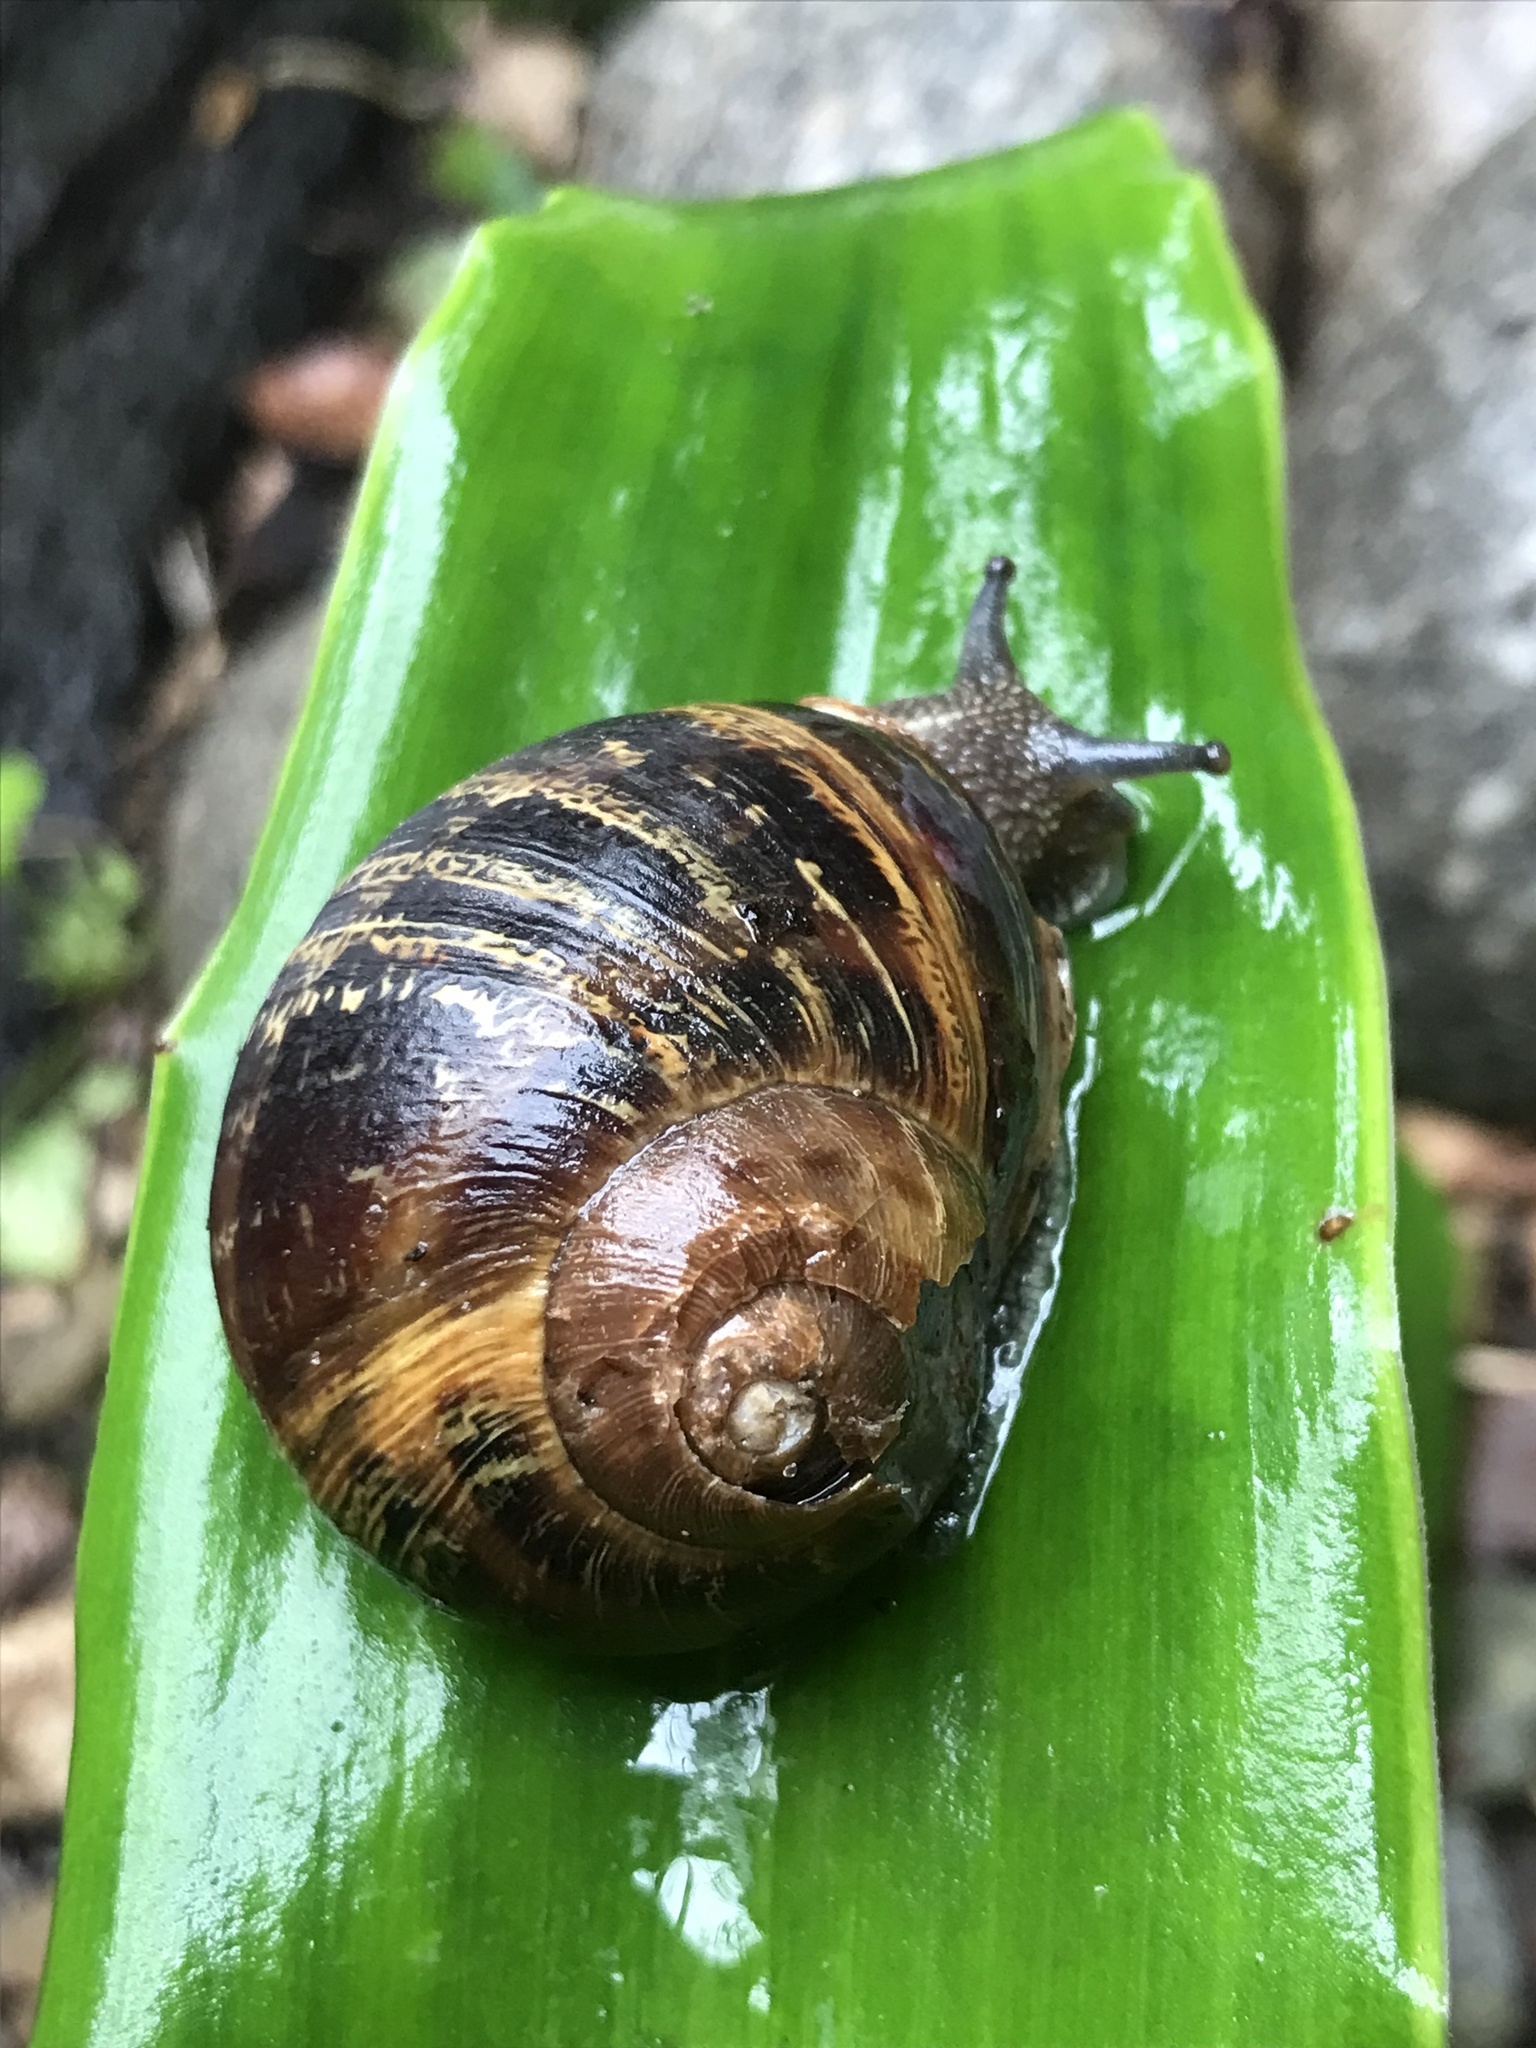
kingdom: Animalia
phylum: Mollusca
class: Gastropoda
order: Stylommatophora
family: Helicidae
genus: Cornu
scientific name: Cornu aspersum
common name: Brown garden snail
